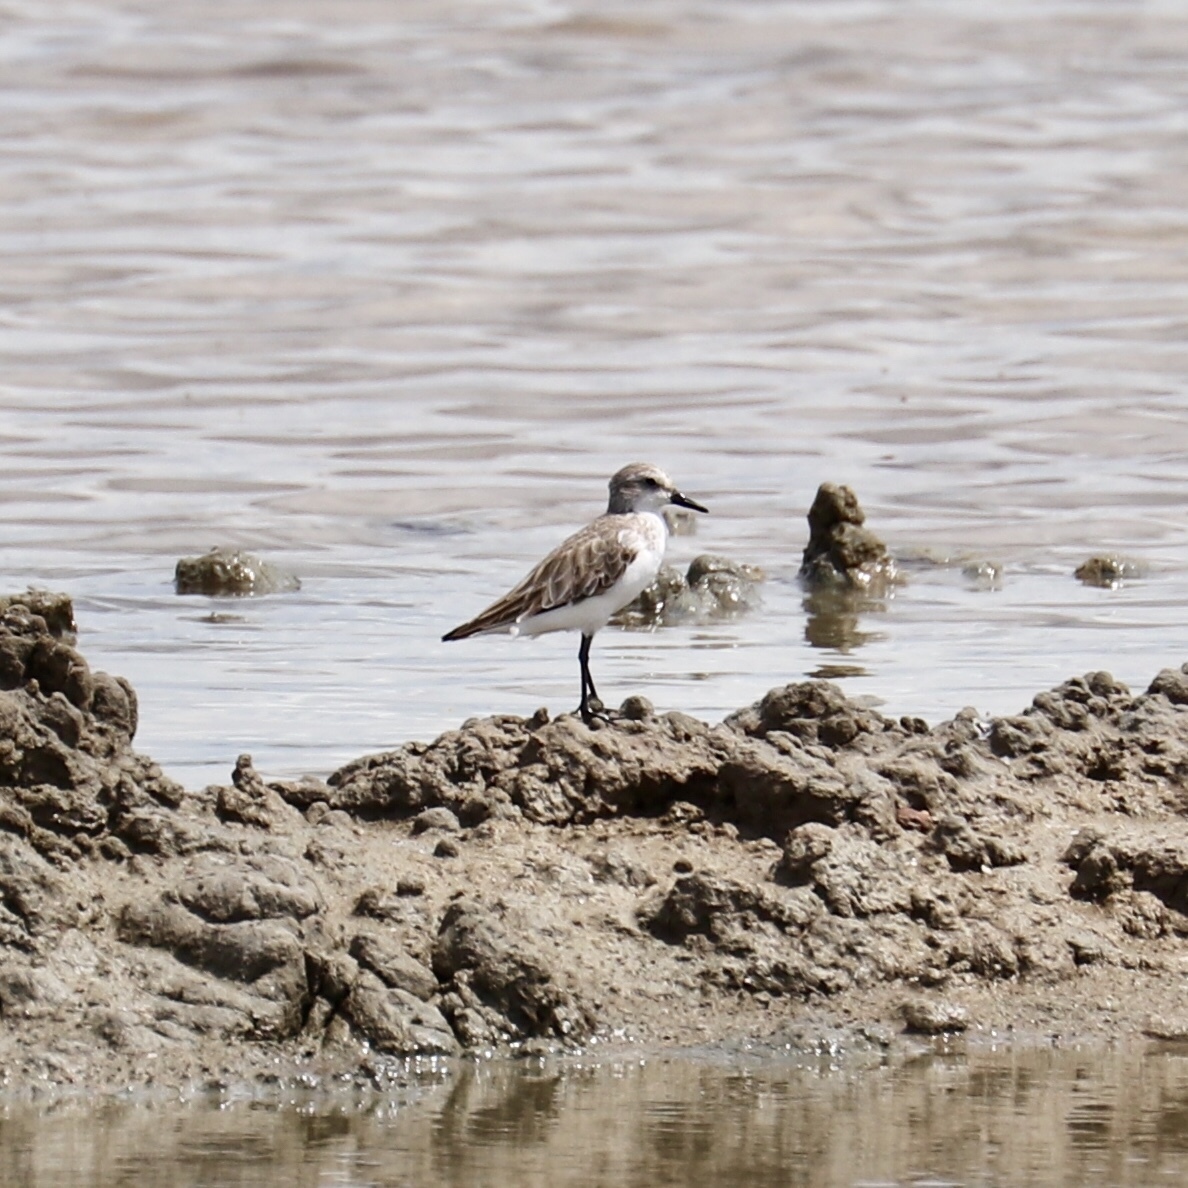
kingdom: Animalia
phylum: Chordata
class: Aves
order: Charadriiformes
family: Scolopacidae
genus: Calidris
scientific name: Calidris pusilla
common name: Semipalmated sandpiper
